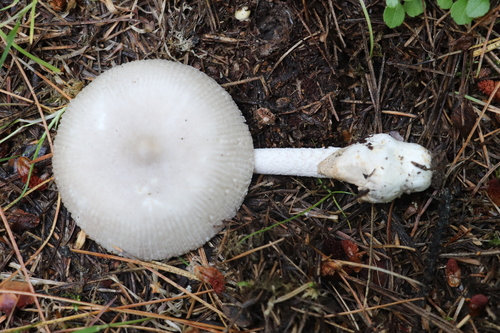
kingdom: Fungi
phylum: Basidiomycota
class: Agaricomycetes
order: Agaricales
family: Amanitaceae
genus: Amanita
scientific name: Amanita
